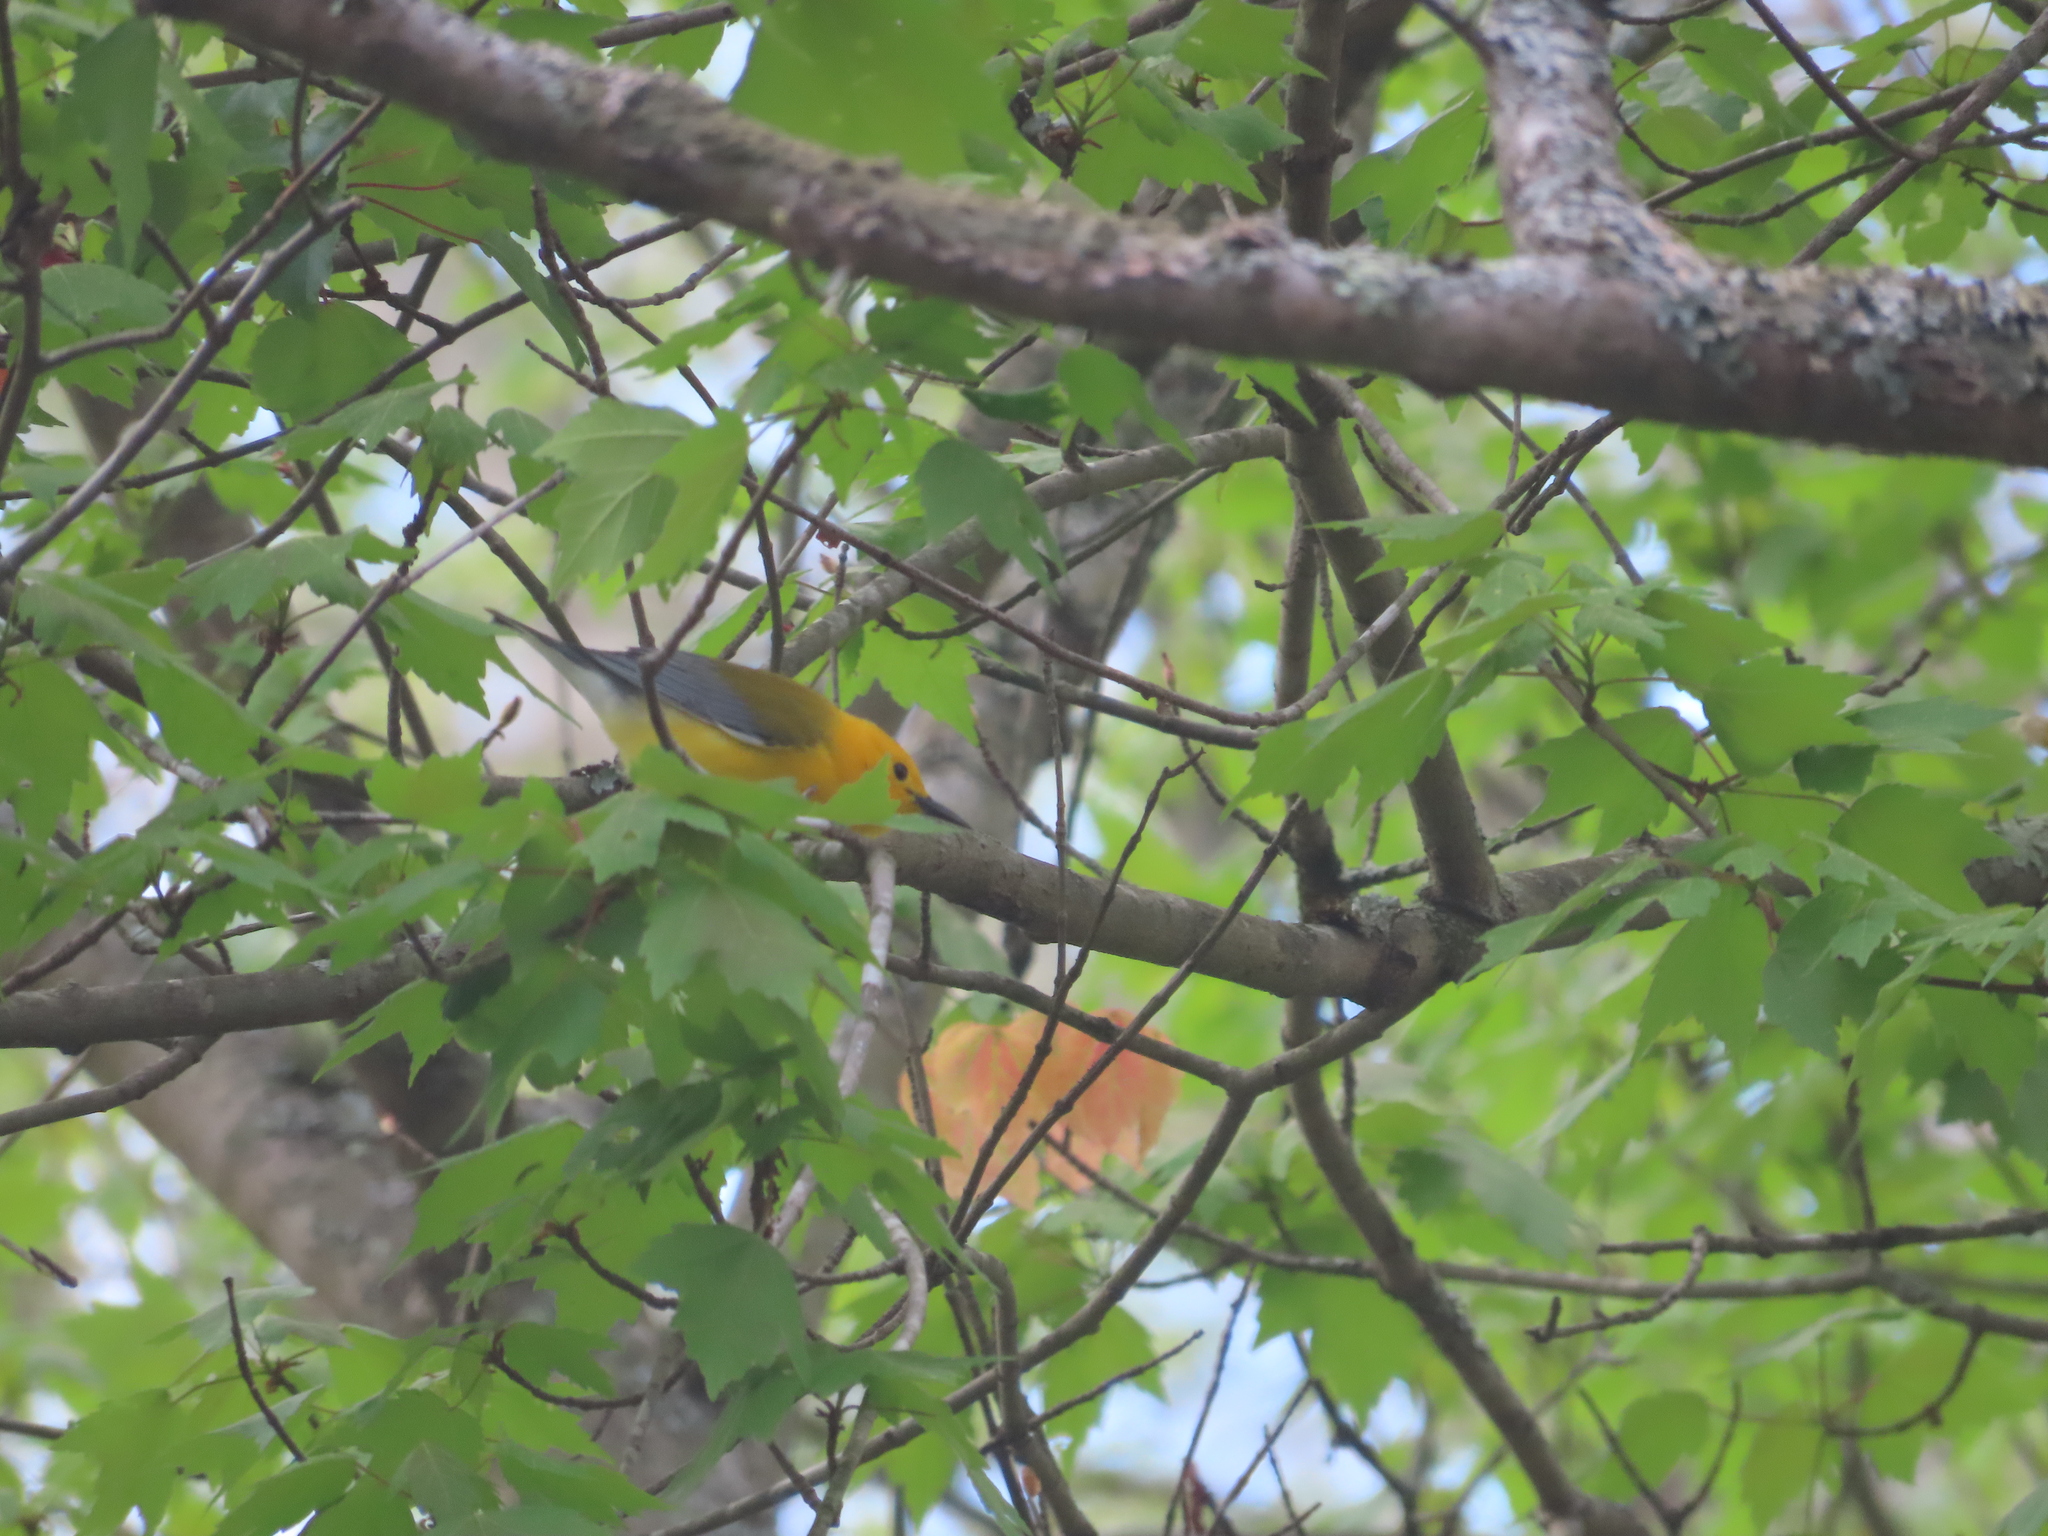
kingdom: Animalia
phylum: Chordata
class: Aves
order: Passeriformes
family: Parulidae
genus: Protonotaria
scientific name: Protonotaria citrea
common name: Prothonotary warbler
